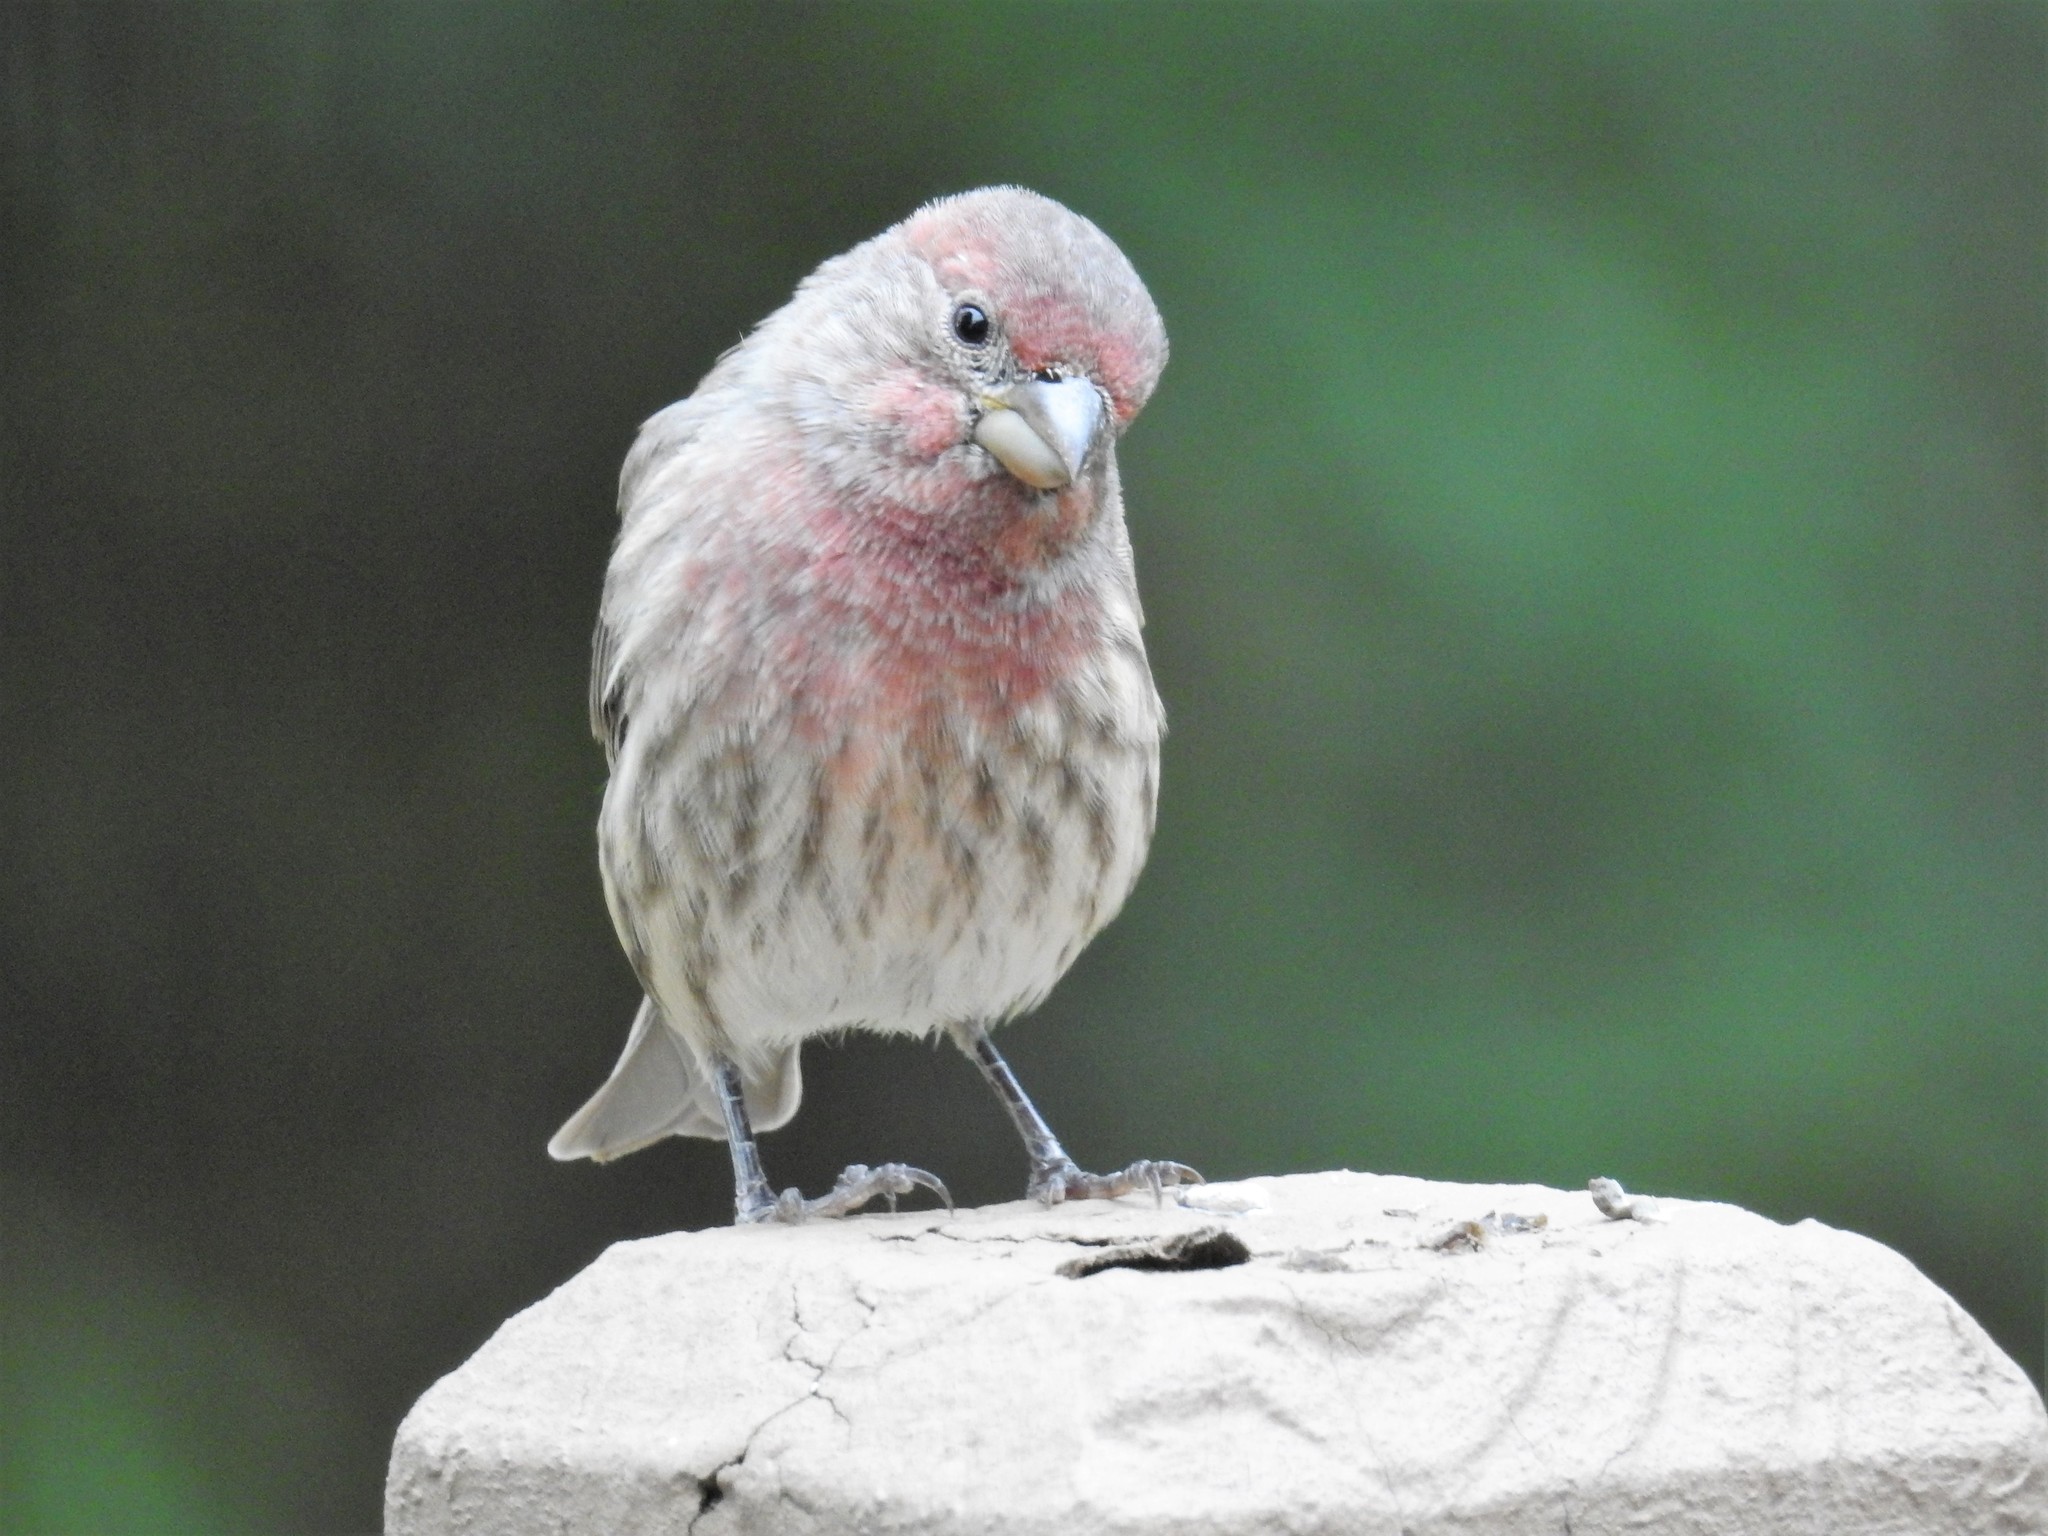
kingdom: Animalia
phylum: Chordata
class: Aves
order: Passeriformes
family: Fringillidae
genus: Haemorhous
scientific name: Haemorhous mexicanus
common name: House finch
